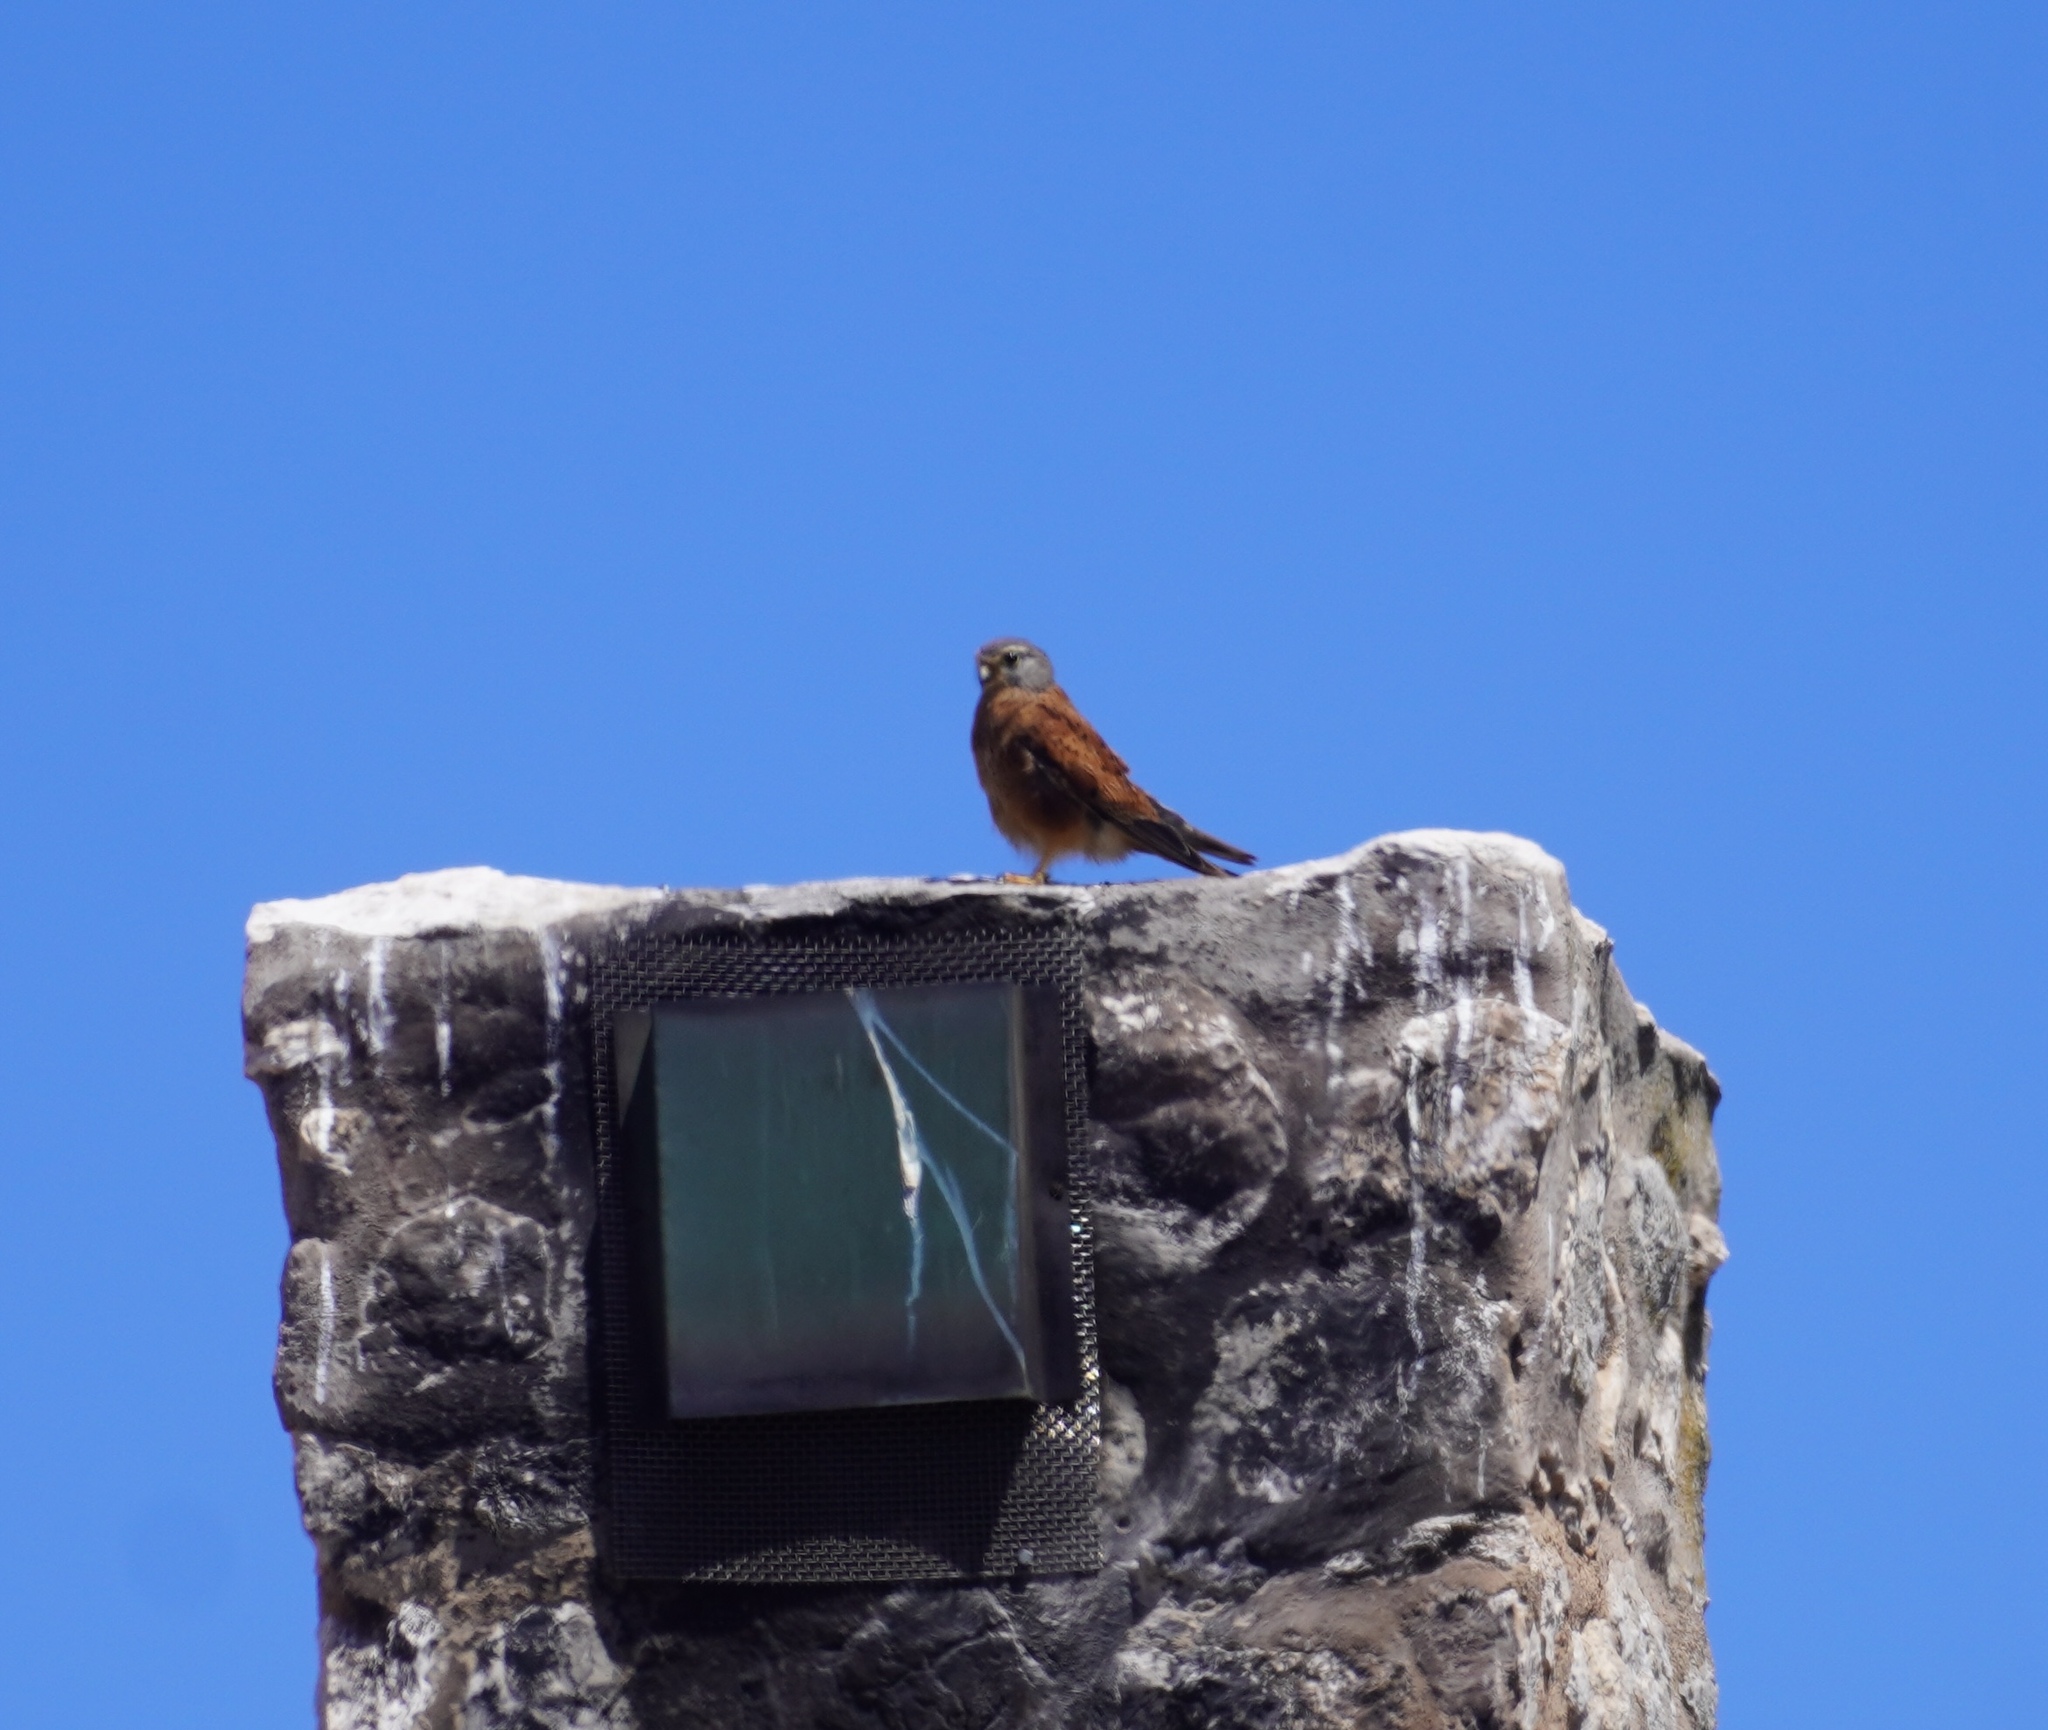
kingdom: Animalia
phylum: Chordata
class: Aves
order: Falconiformes
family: Falconidae
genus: Falco
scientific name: Falco rupicolus
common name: Rock kestrel
